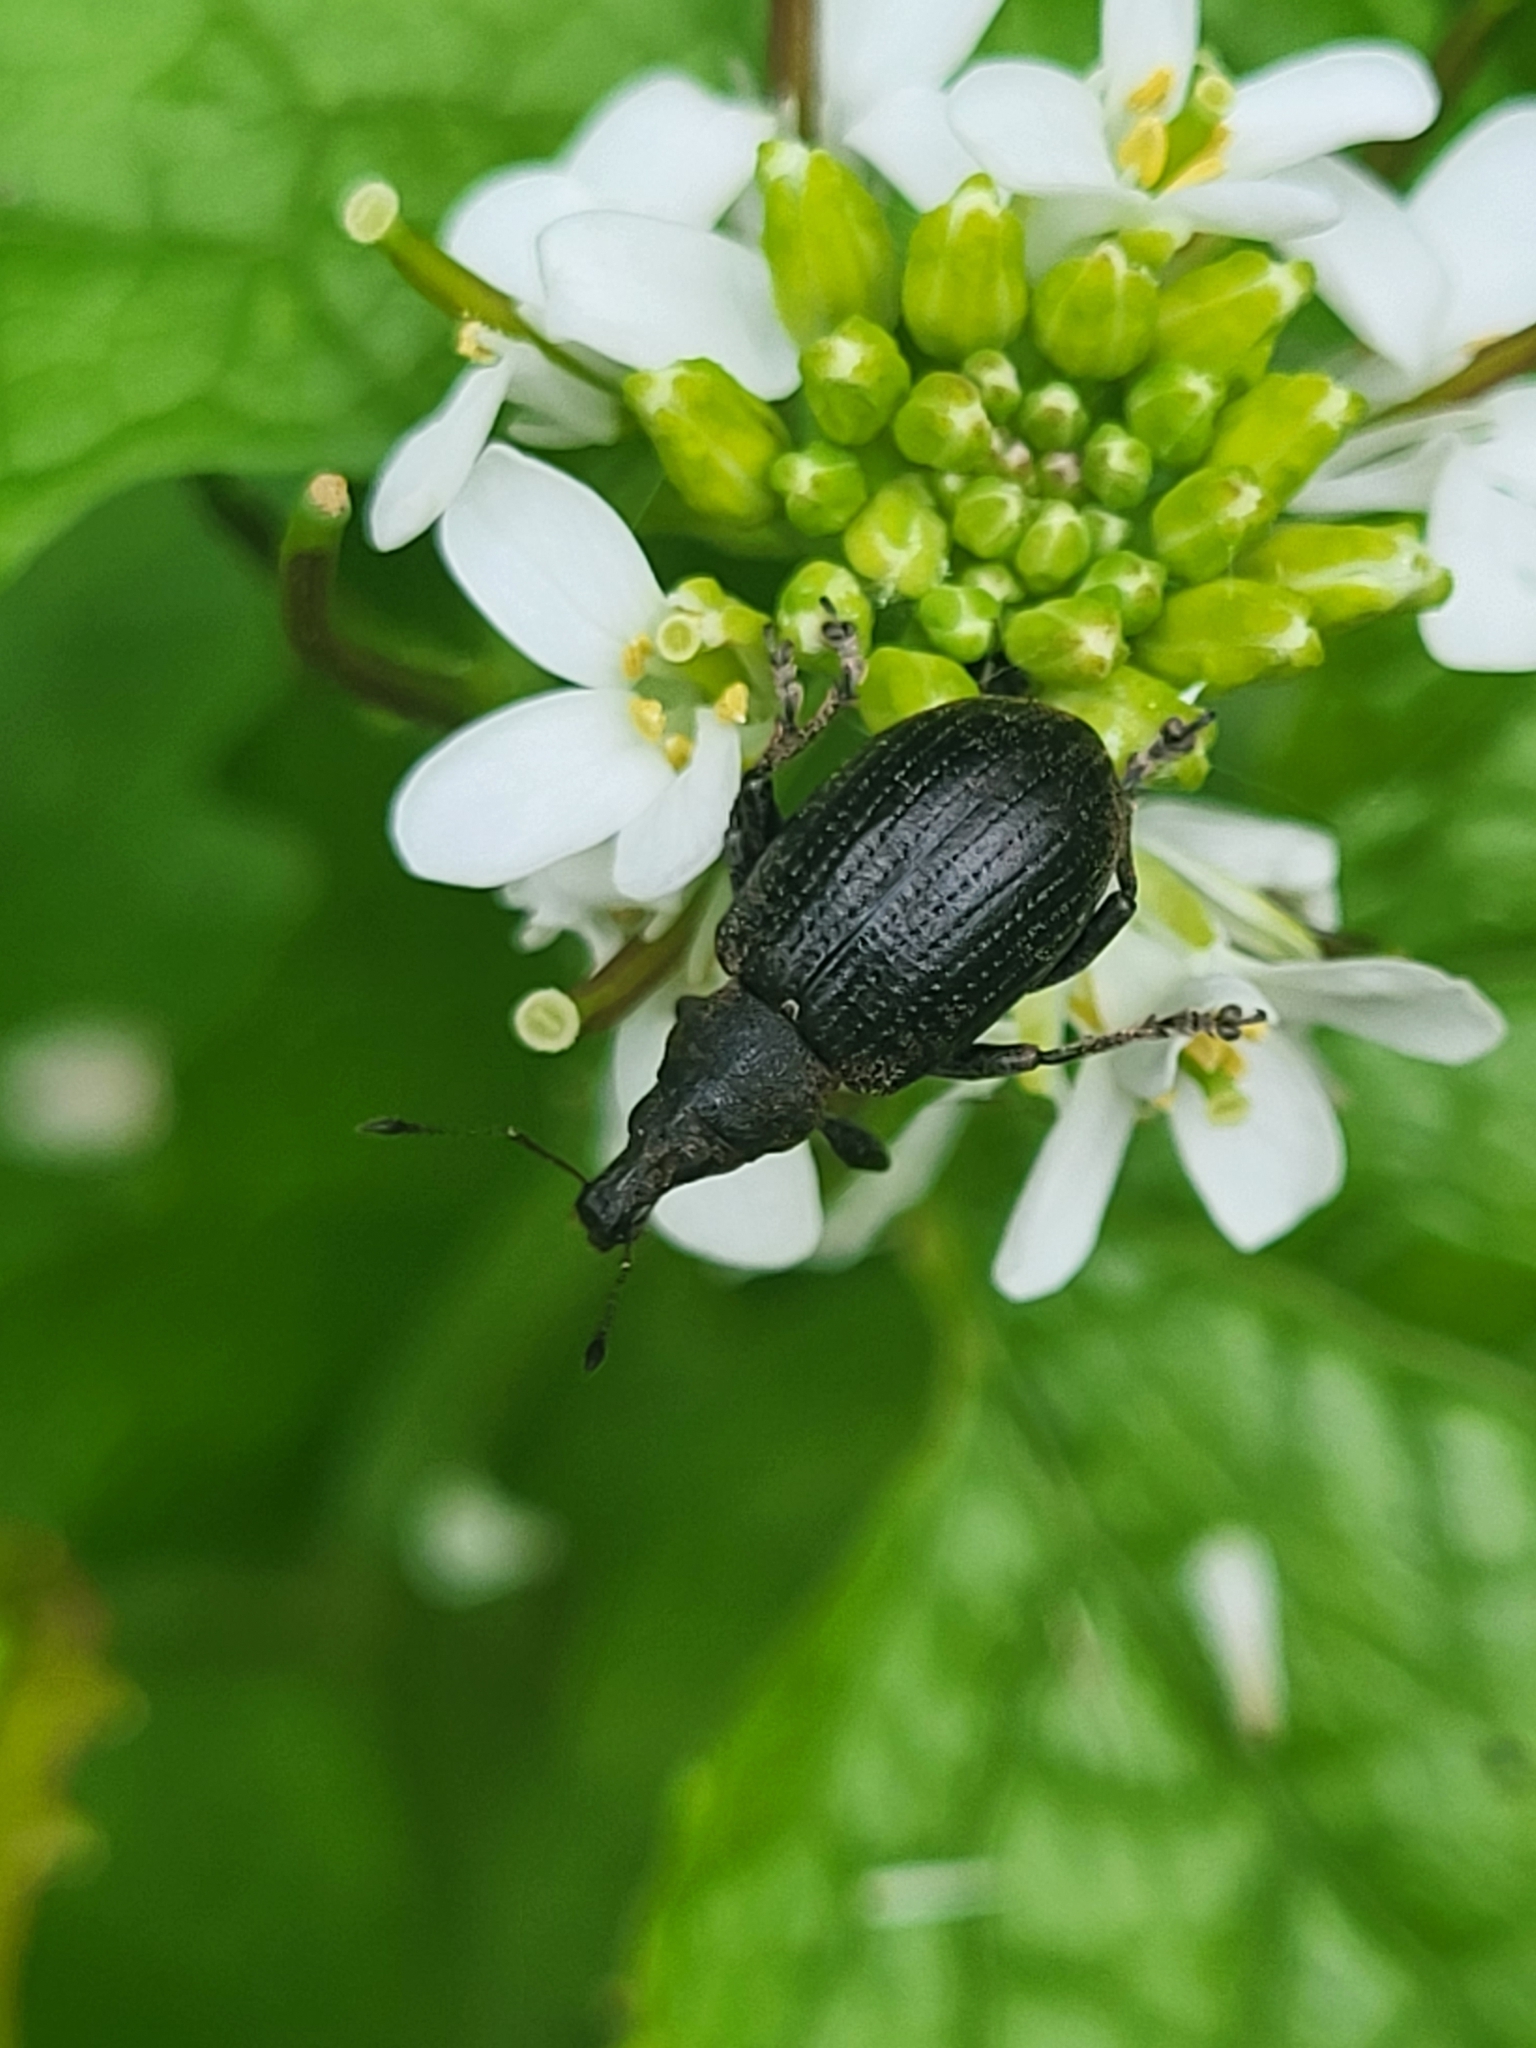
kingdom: Animalia
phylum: Arthropoda
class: Insecta
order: Coleoptera
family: Curculionidae
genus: Liophloeus
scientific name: Liophloeus tessulatus
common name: Weevil
